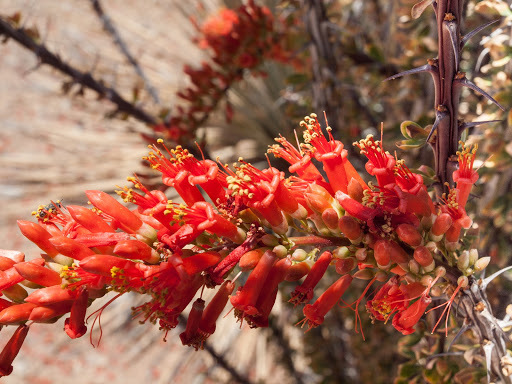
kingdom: Plantae
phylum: Tracheophyta
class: Magnoliopsida
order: Ericales
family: Fouquieriaceae
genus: Fouquieria
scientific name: Fouquieria splendens
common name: Vine-cactus
